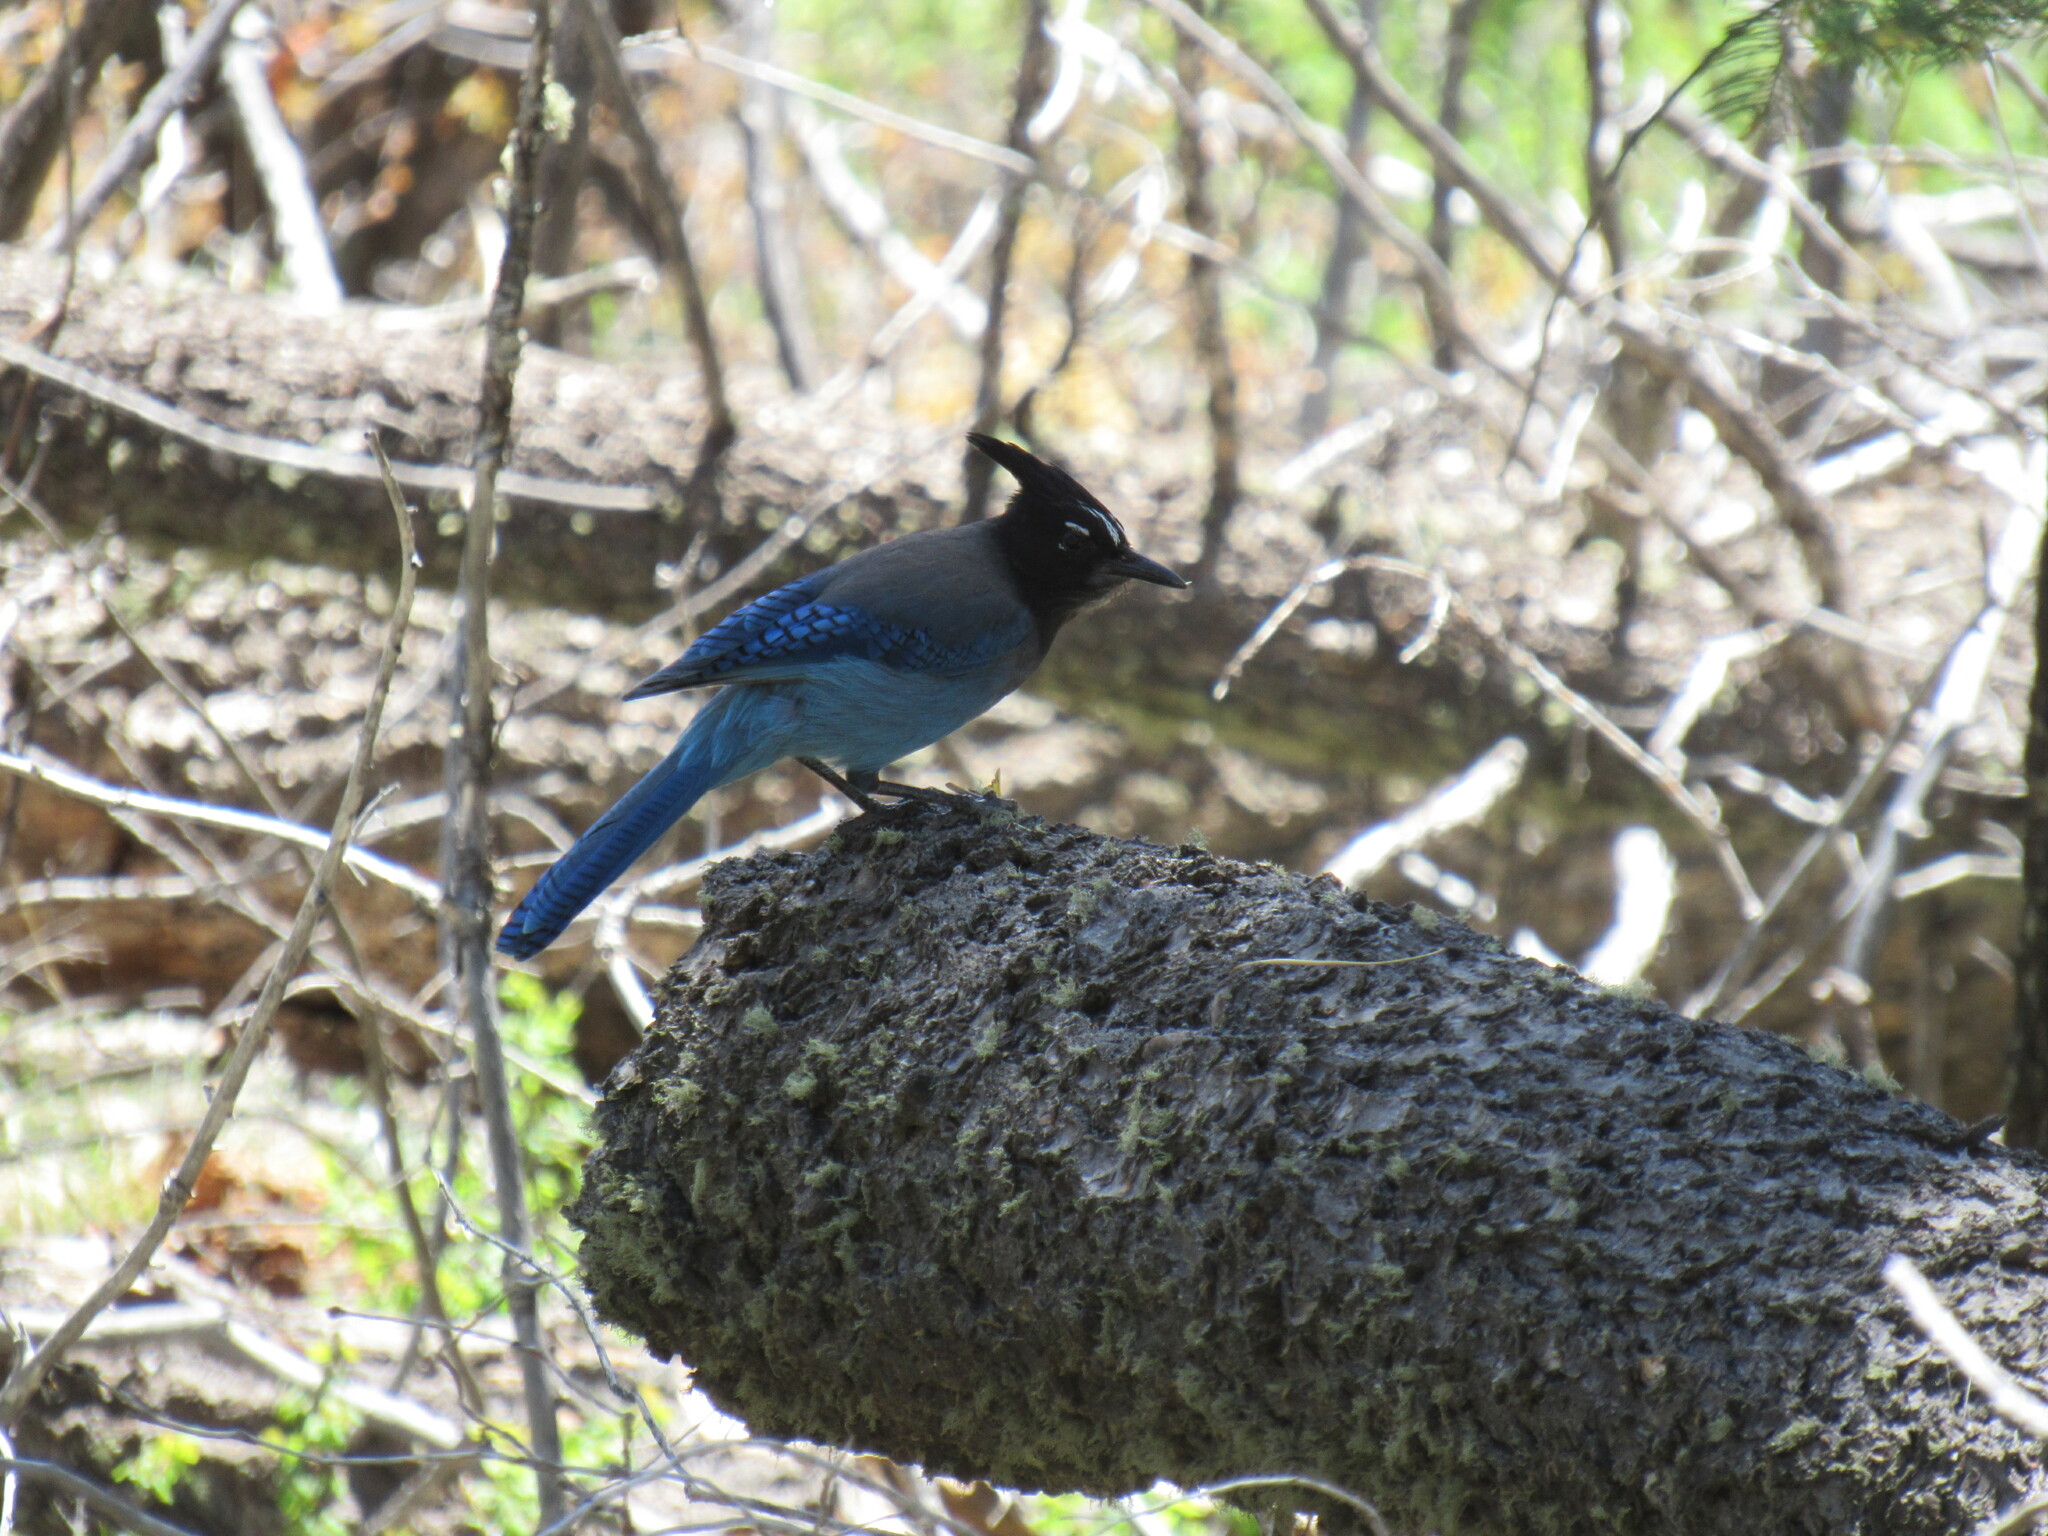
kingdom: Animalia
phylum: Chordata
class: Aves
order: Passeriformes
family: Corvidae
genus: Cyanocitta
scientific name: Cyanocitta stelleri
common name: Steller's jay
